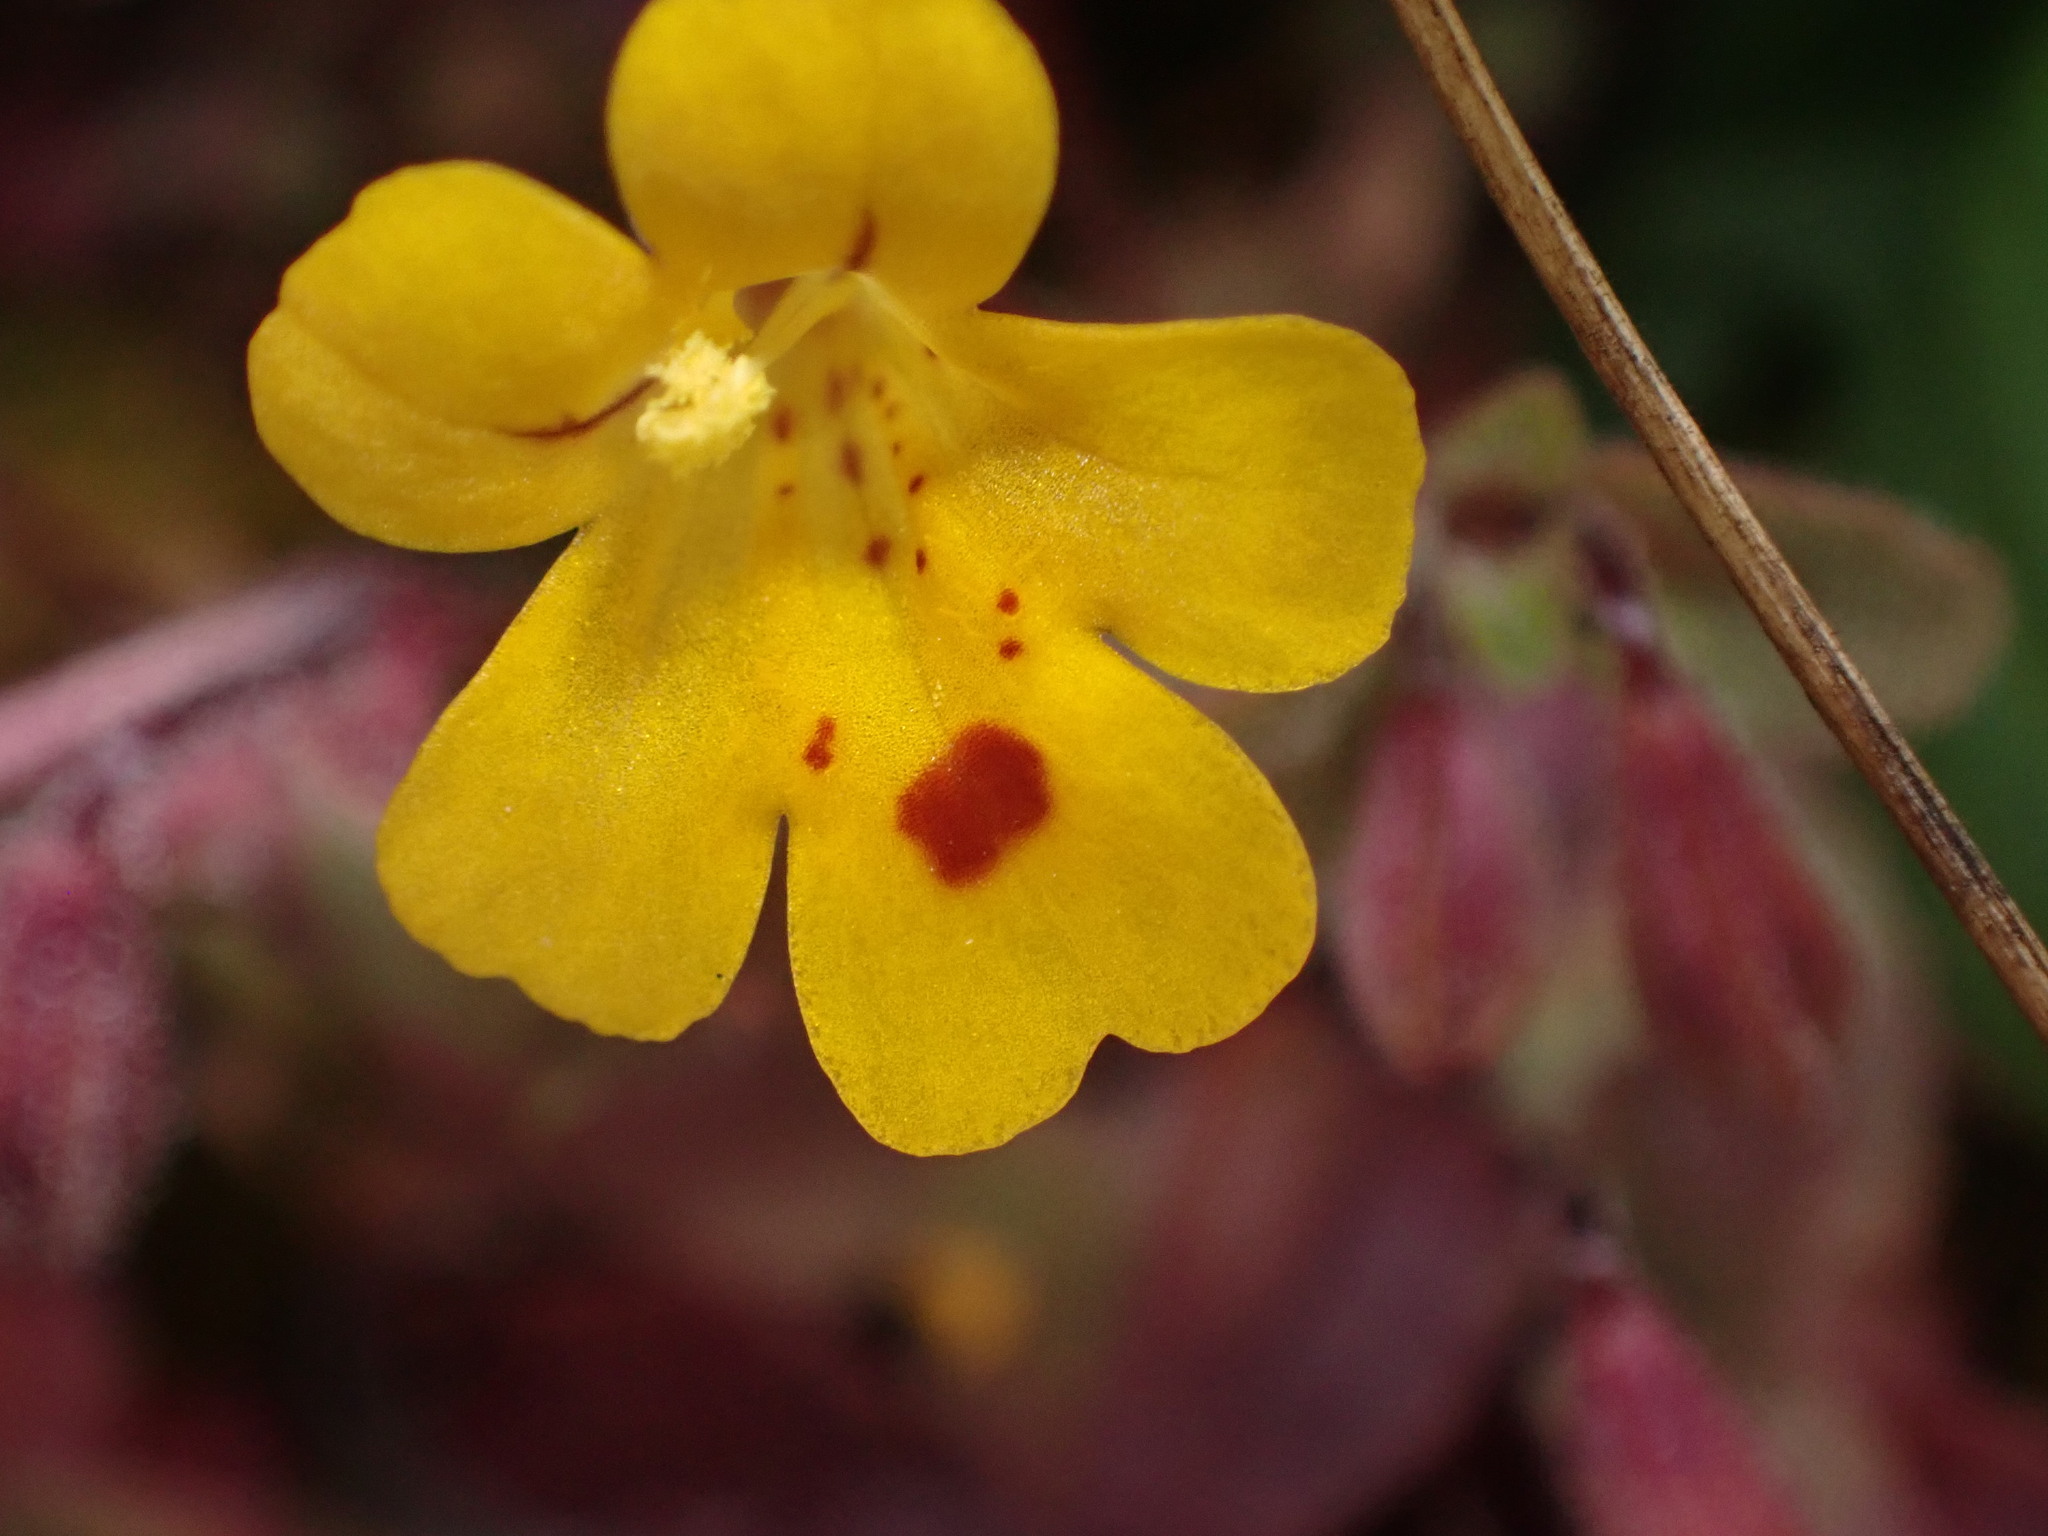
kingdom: Plantae
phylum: Tracheophyta
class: Magnoliopsida
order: Lamiales
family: Phrymaceae
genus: Erythranthe
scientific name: Erythranthe alsinoides
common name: Chickweed monkeyflower
